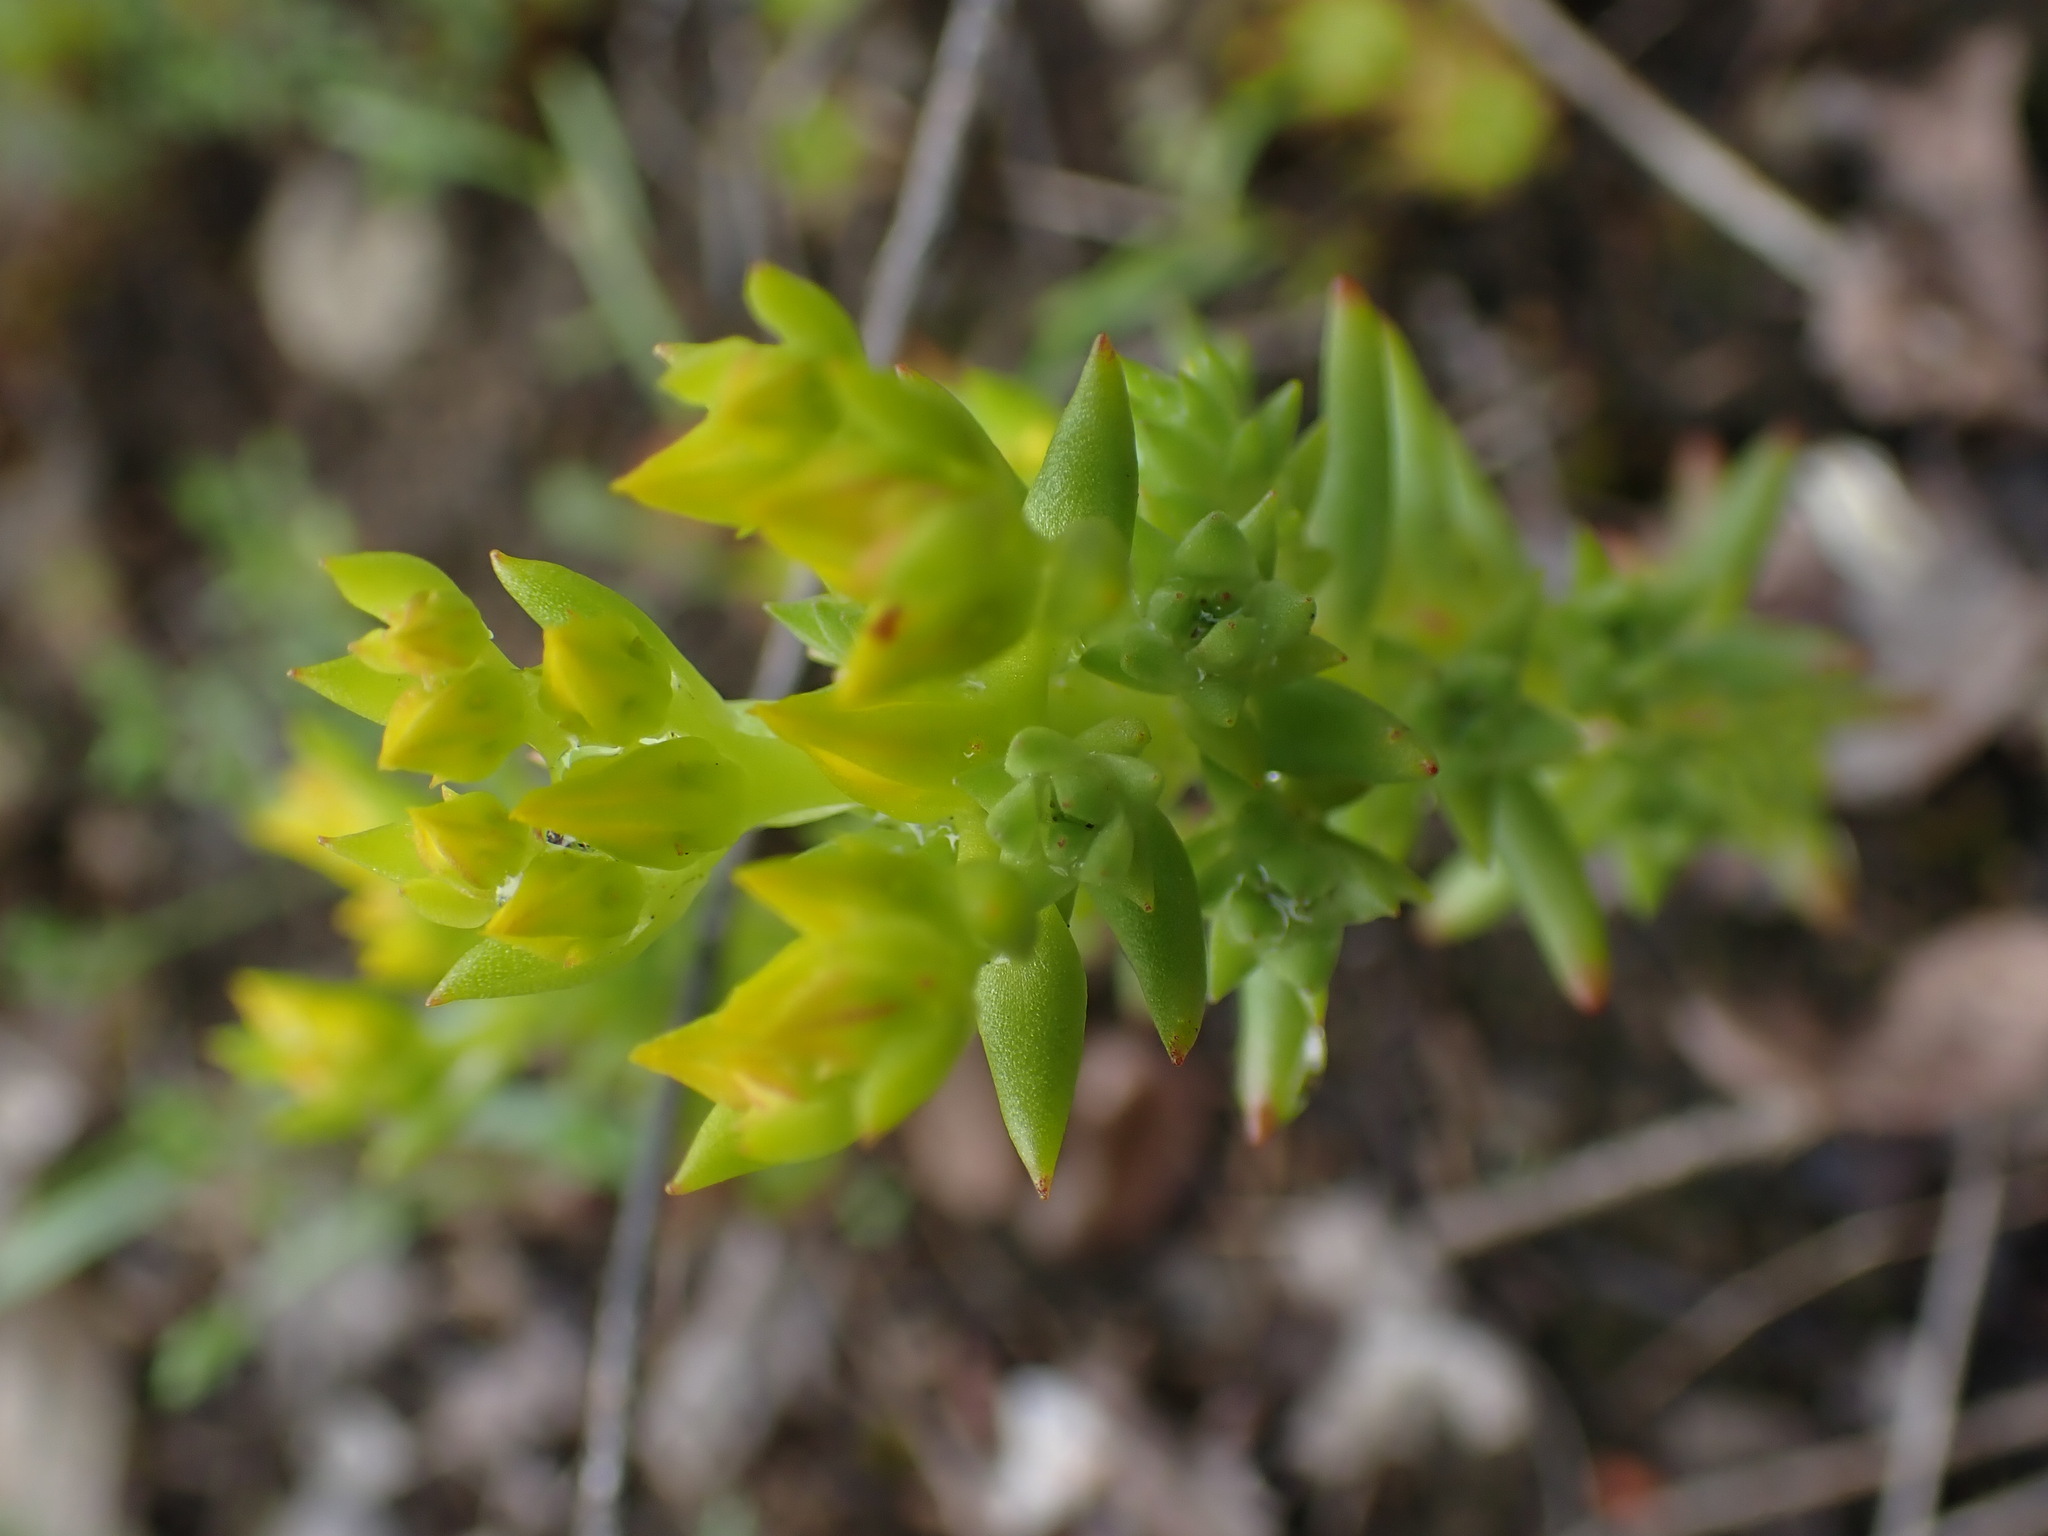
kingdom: Plantae
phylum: Tracheophyta
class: Magnoliopsida
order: Saxifragales
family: Crassulaceae
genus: Sedum
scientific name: Sedum stenopetalum
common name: Narrow-petaled stonecrop
